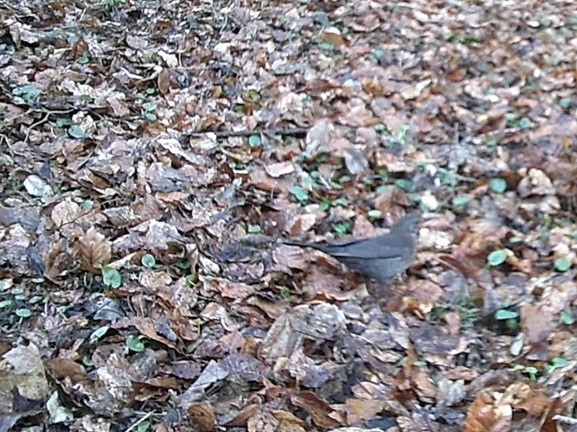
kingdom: Animalia
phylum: Chordata
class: Aves
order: Passeriformes
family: Turdidae
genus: Turdus
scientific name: Turdus merula
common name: Common blackbird
